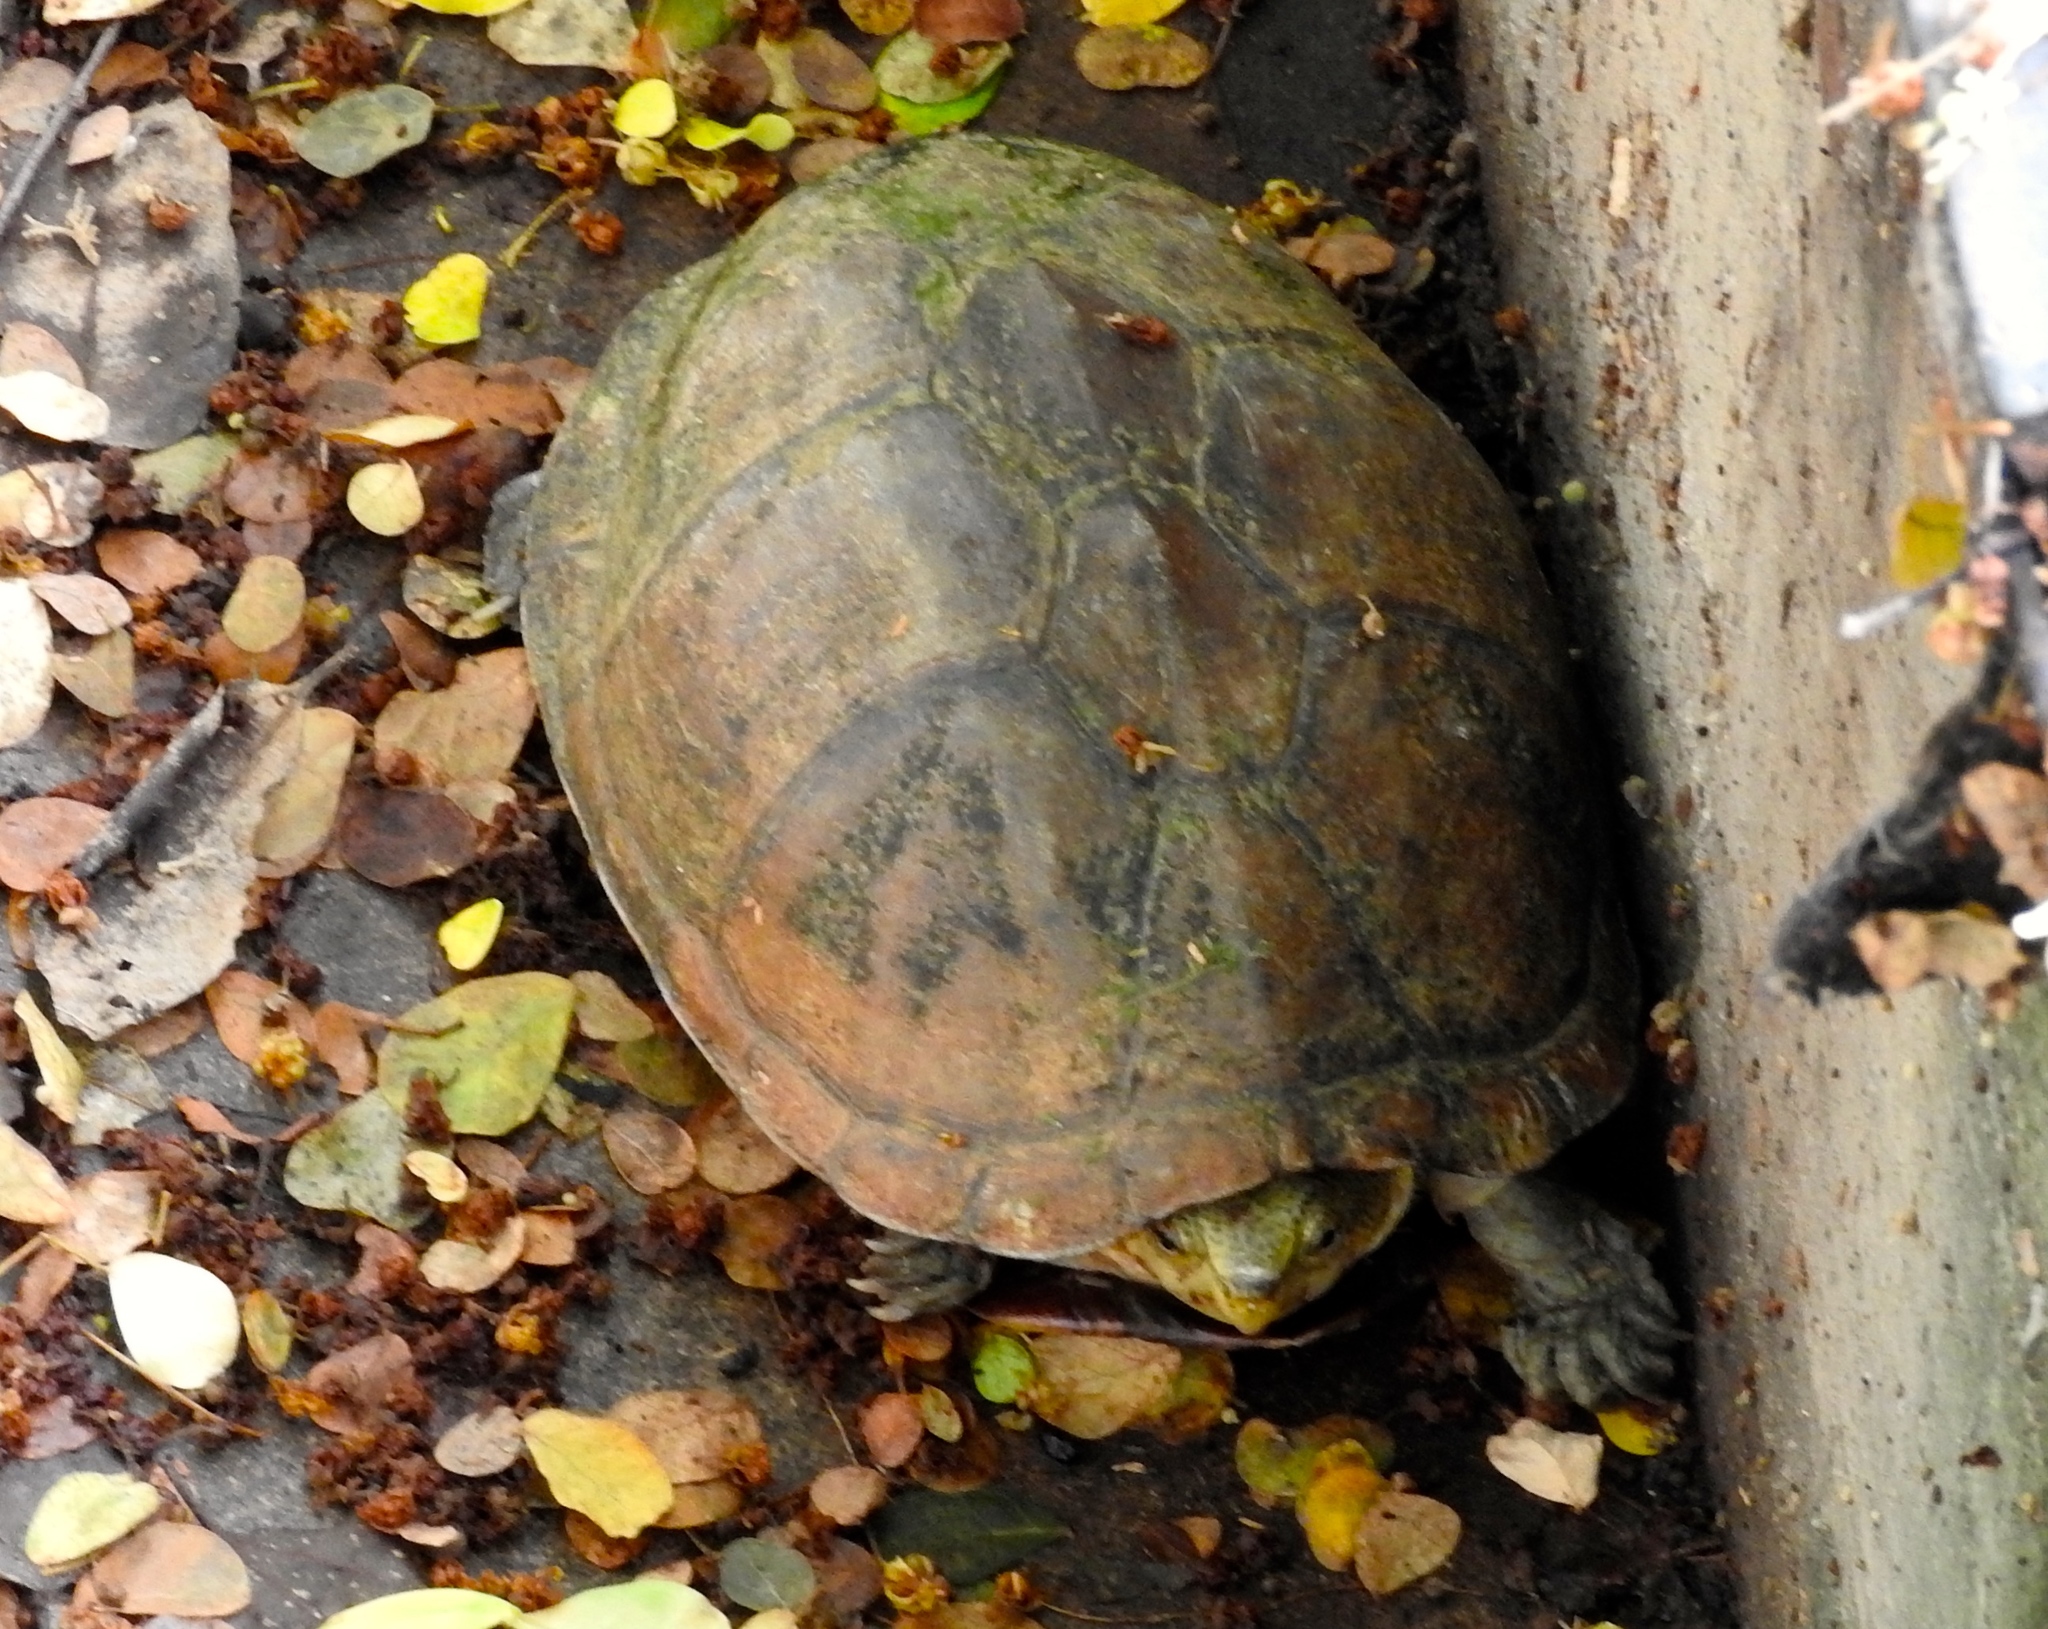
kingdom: Animalia
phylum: Chordata
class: Testudines
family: Kinosternidae
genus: Kinosternon
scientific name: Kinosternon integrum
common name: Mexican mud turtle
